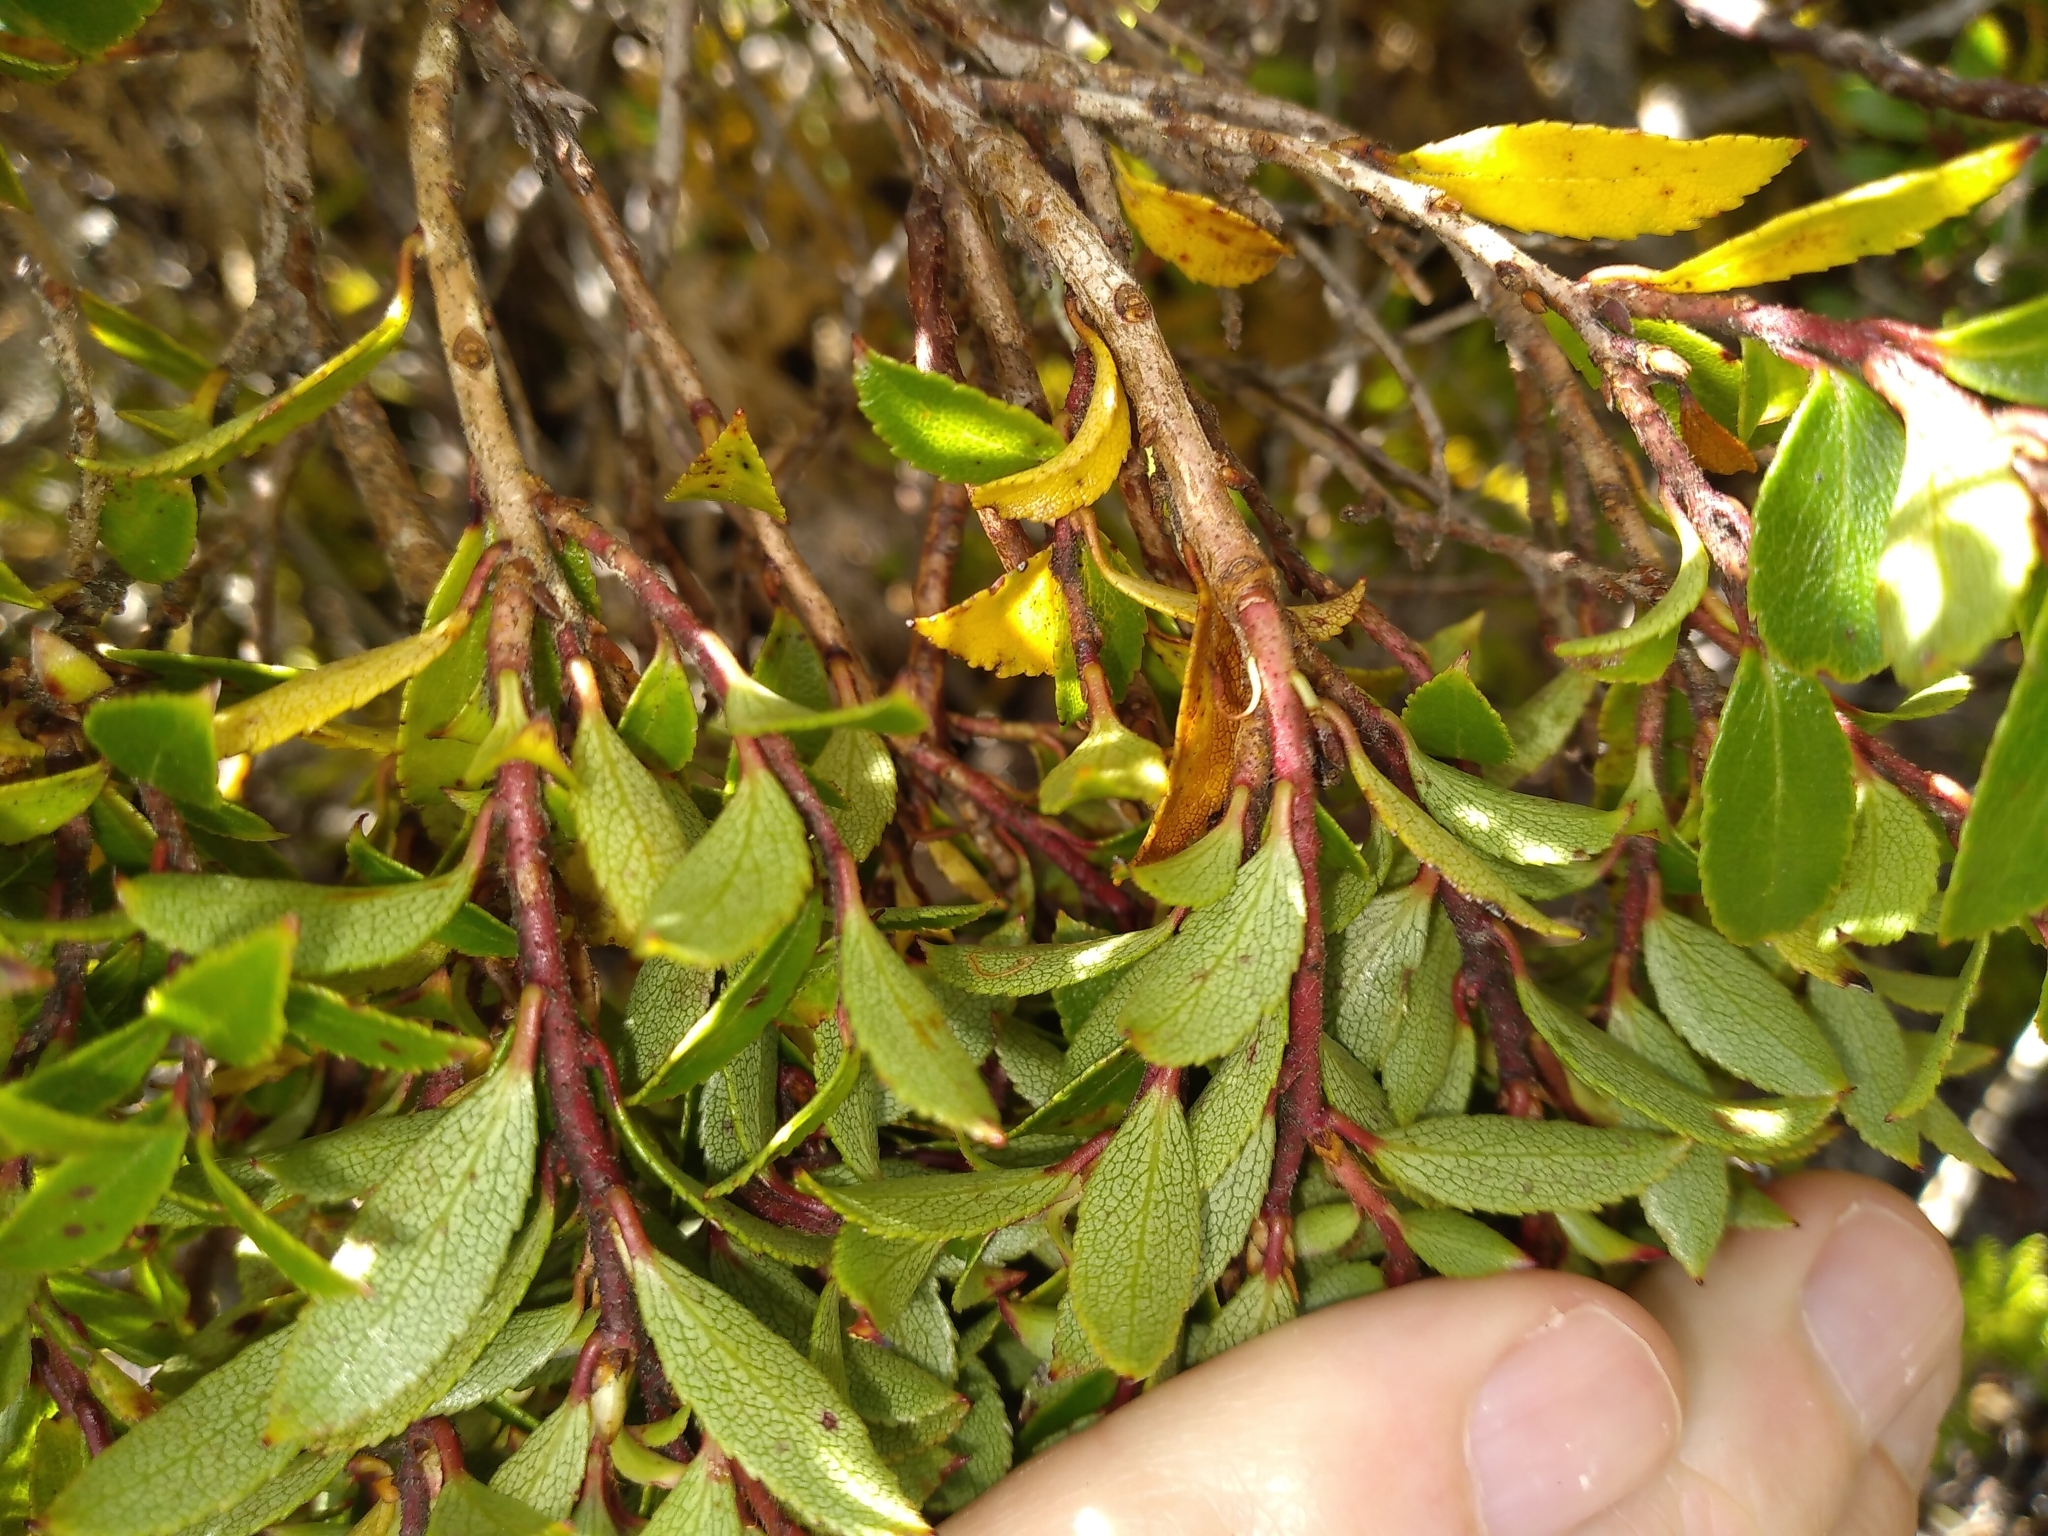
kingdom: Plantae
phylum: Tracheophyta
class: Magnoliopsida
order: Ericales
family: Ericaceae
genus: Gaultheria
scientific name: Gaultheria rupestris
